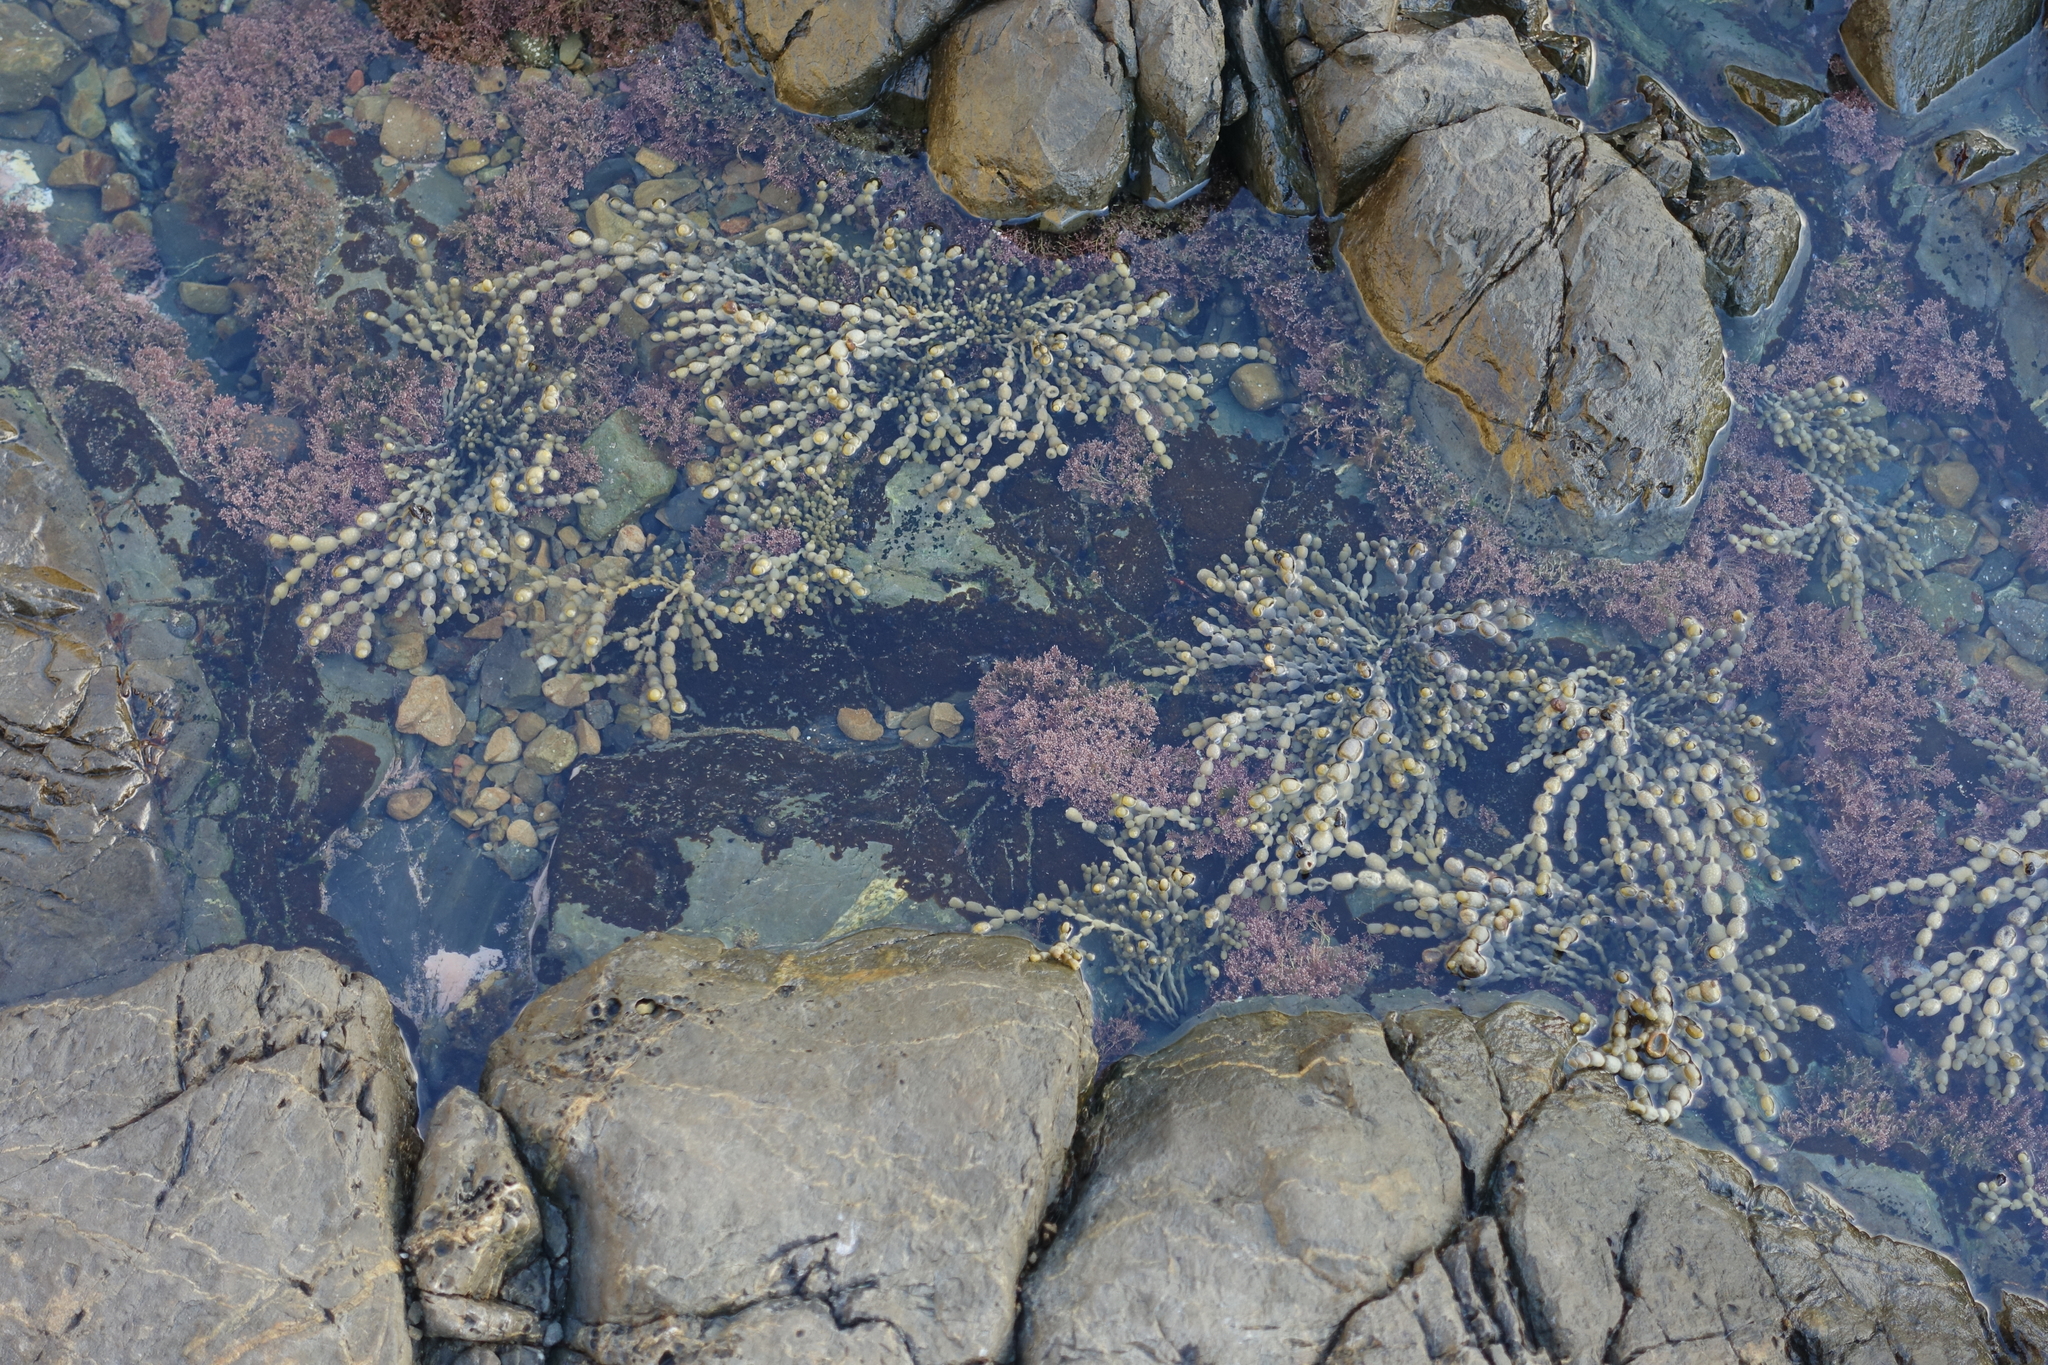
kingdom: Chromista
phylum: Ochrophyta
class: Phaeophyceae
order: Fucales
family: Hormosiraceae
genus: Hormosira
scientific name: Hormosira banksii
